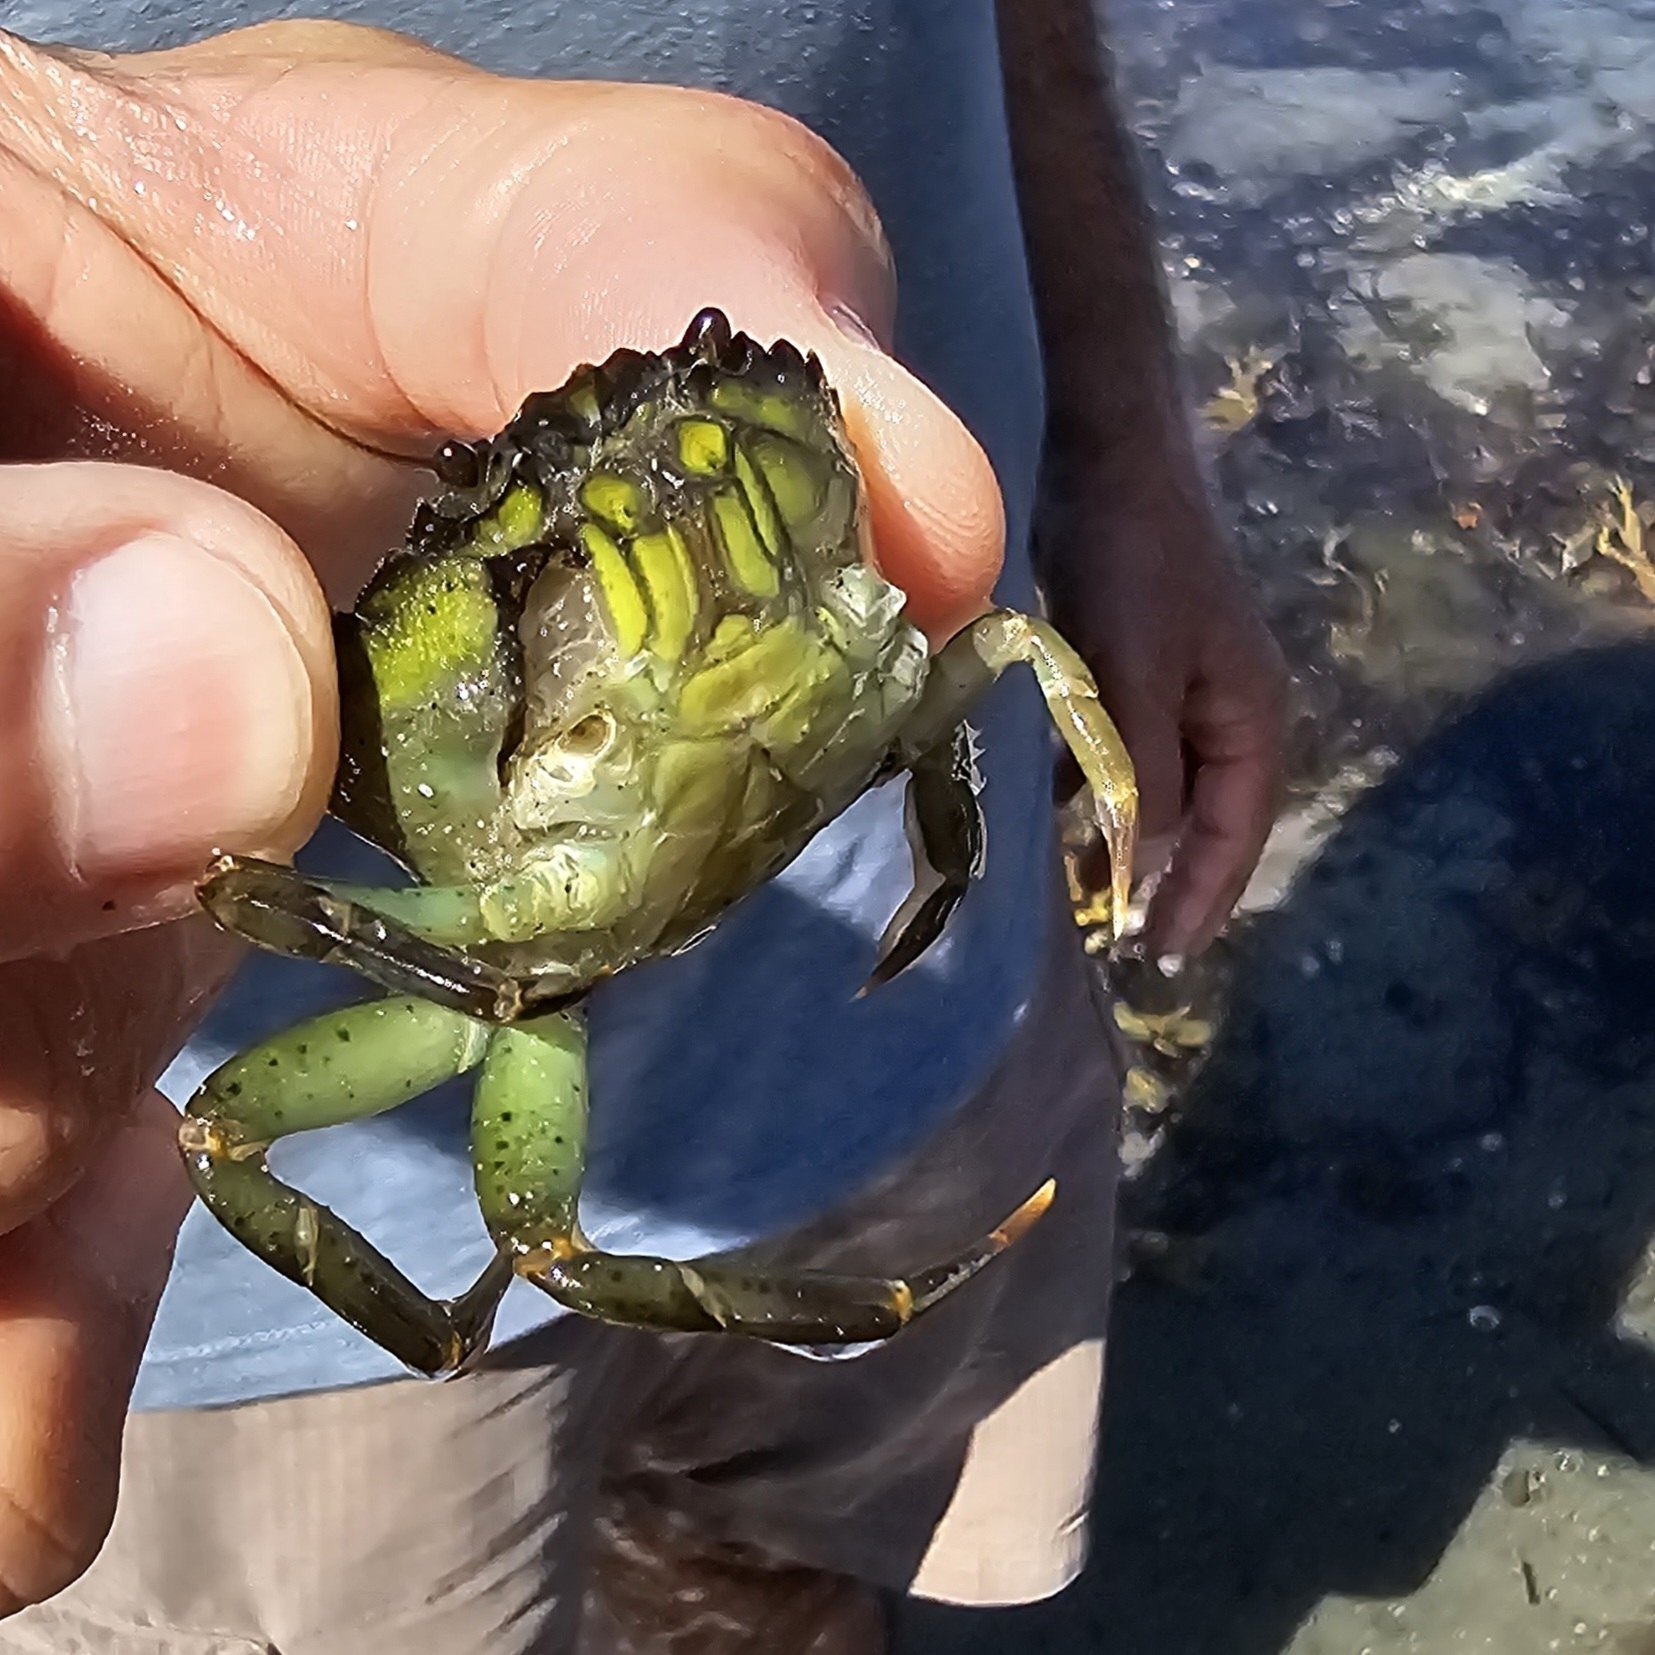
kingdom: Animalia
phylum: Arthropoda
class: Malacostraca
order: Decapoda
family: Carcinidae
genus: Carcinus
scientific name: Carcinus maenas
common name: European green crab
